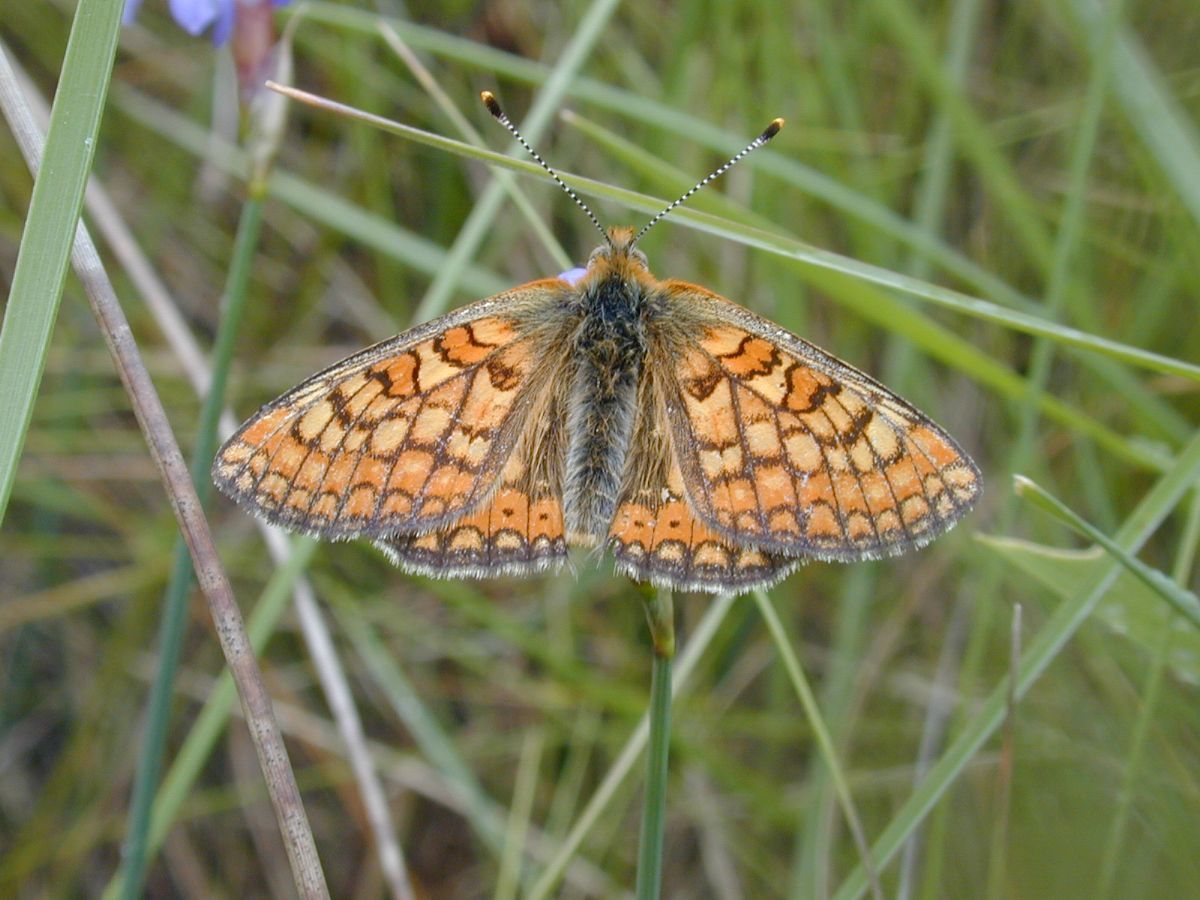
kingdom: Animalia
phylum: Arthropoda
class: Insecta
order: Lepidoptera
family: Nymphalidae
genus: Euphydryas
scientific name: Euphydryas aurinia
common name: Marsh fritillary
